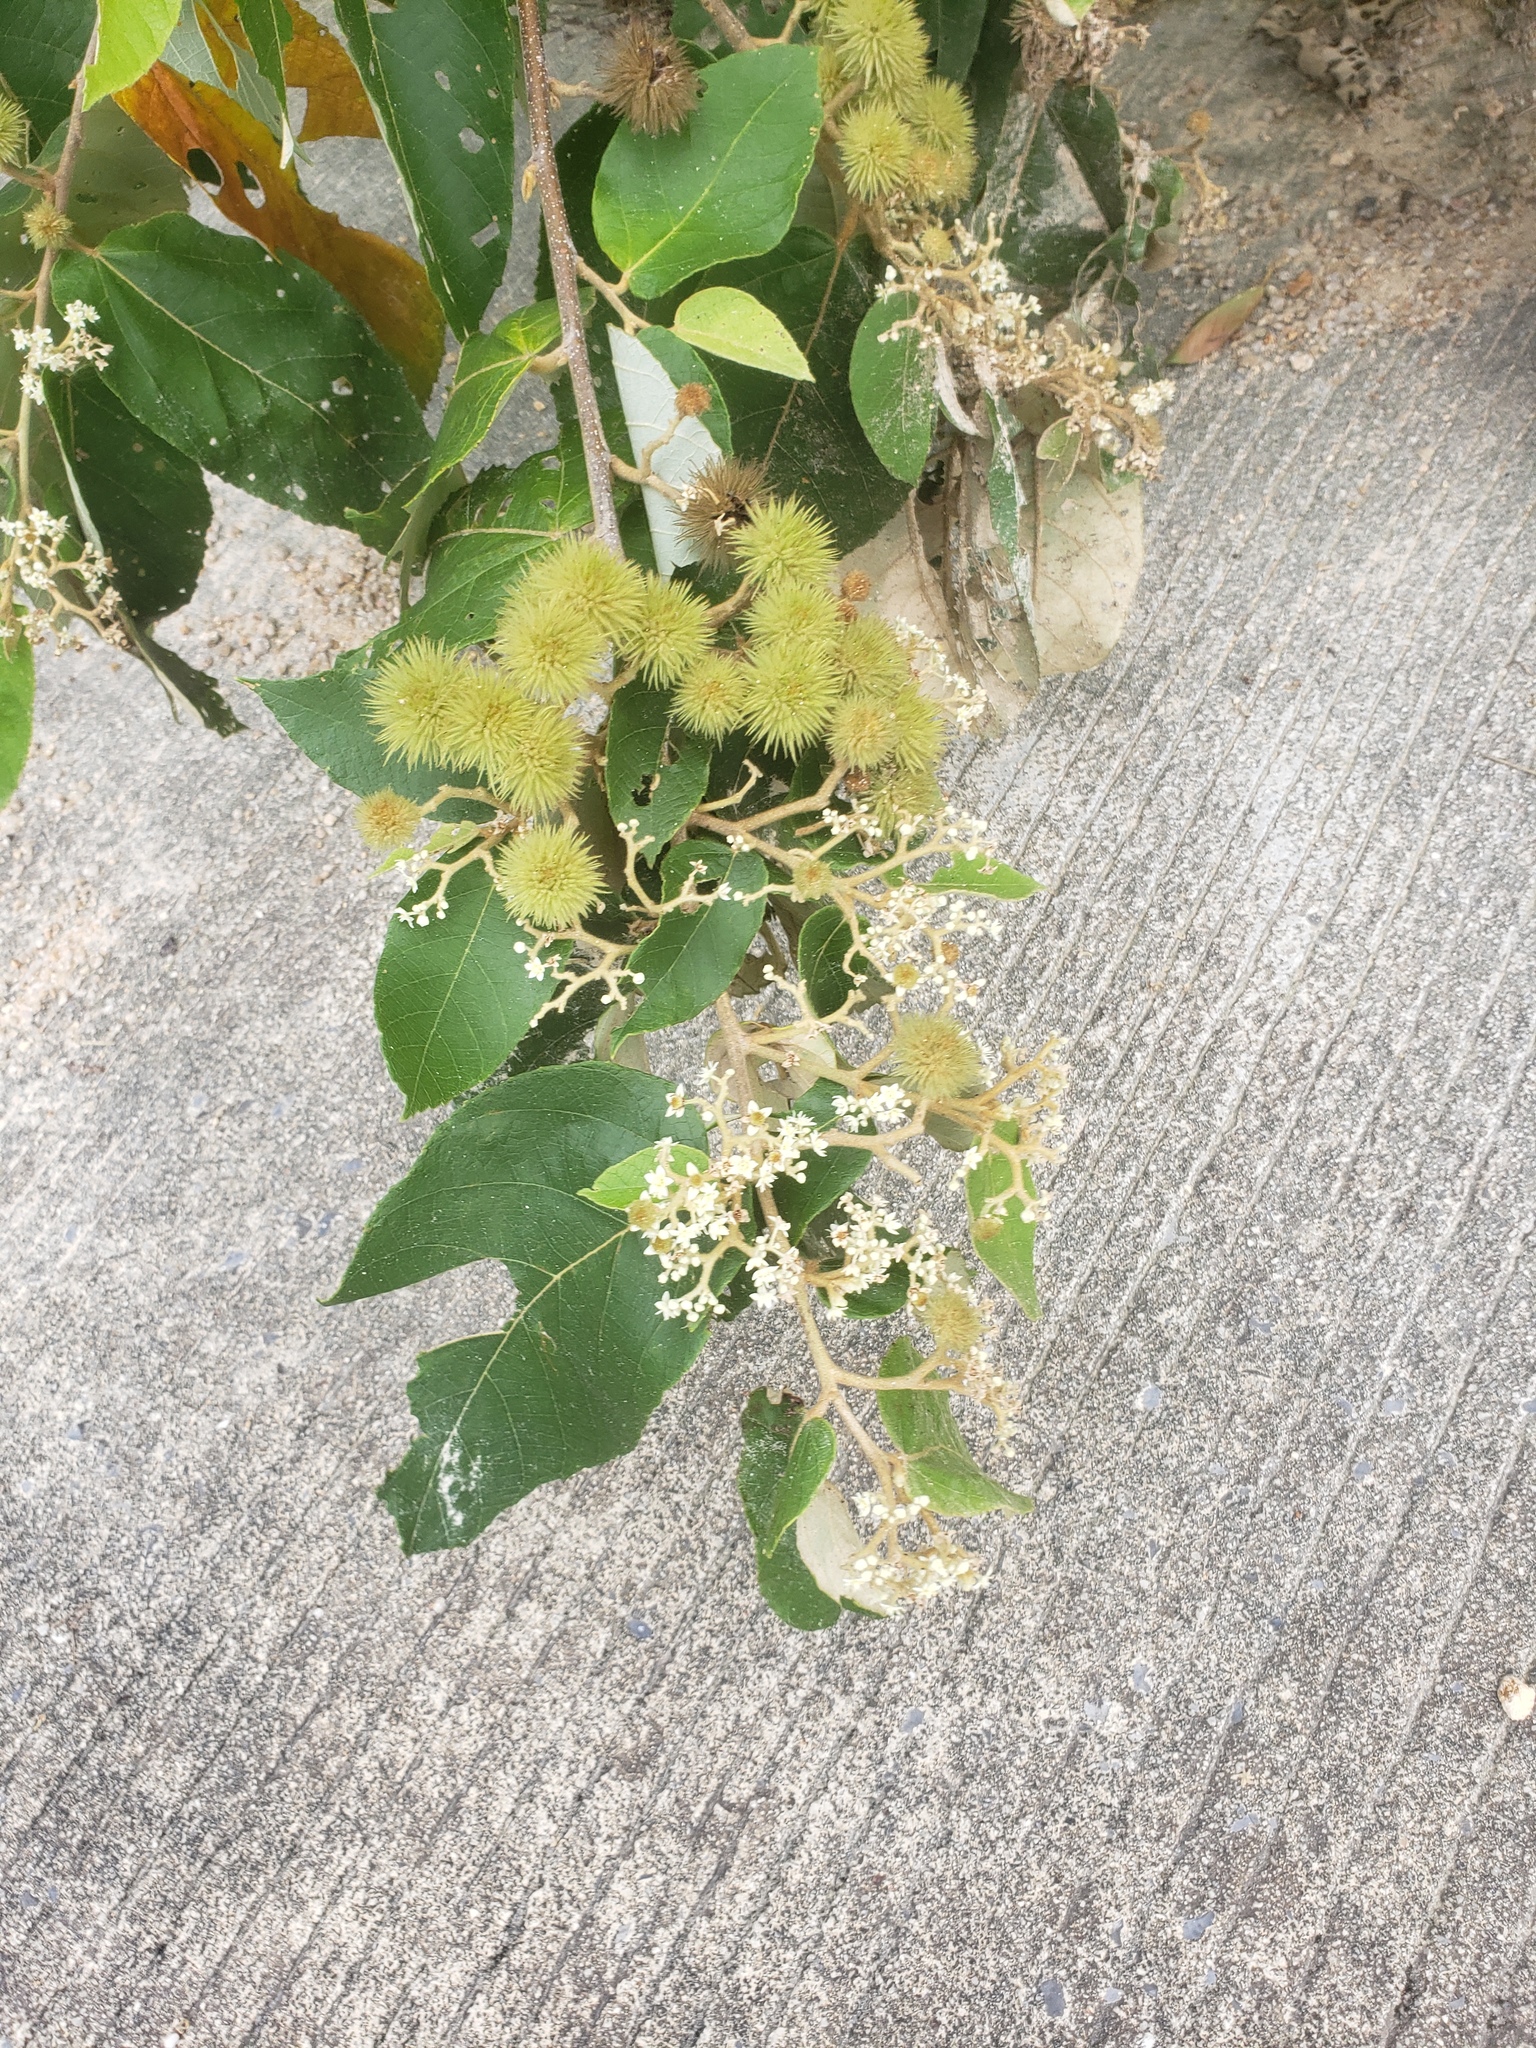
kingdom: Plantae
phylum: Tracheophyta
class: Magnoliopsida
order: Malvales
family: Malvaceae
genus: Commersonia
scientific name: Commersonia bartramia
